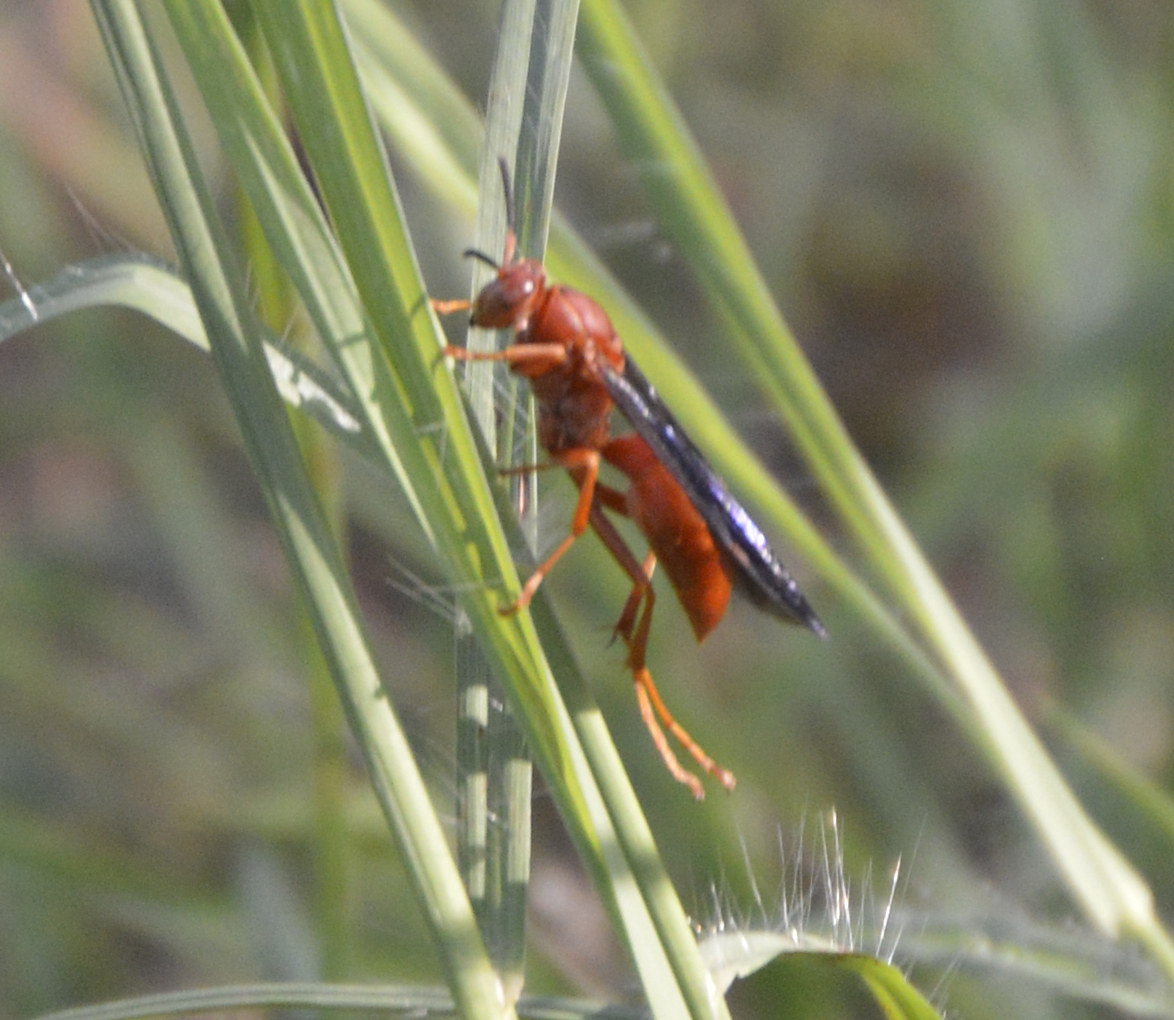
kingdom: Animalia
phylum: Arthropoda
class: Insecta
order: Hymenoptera
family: Eumenidae
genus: Polistes
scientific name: Polistes
